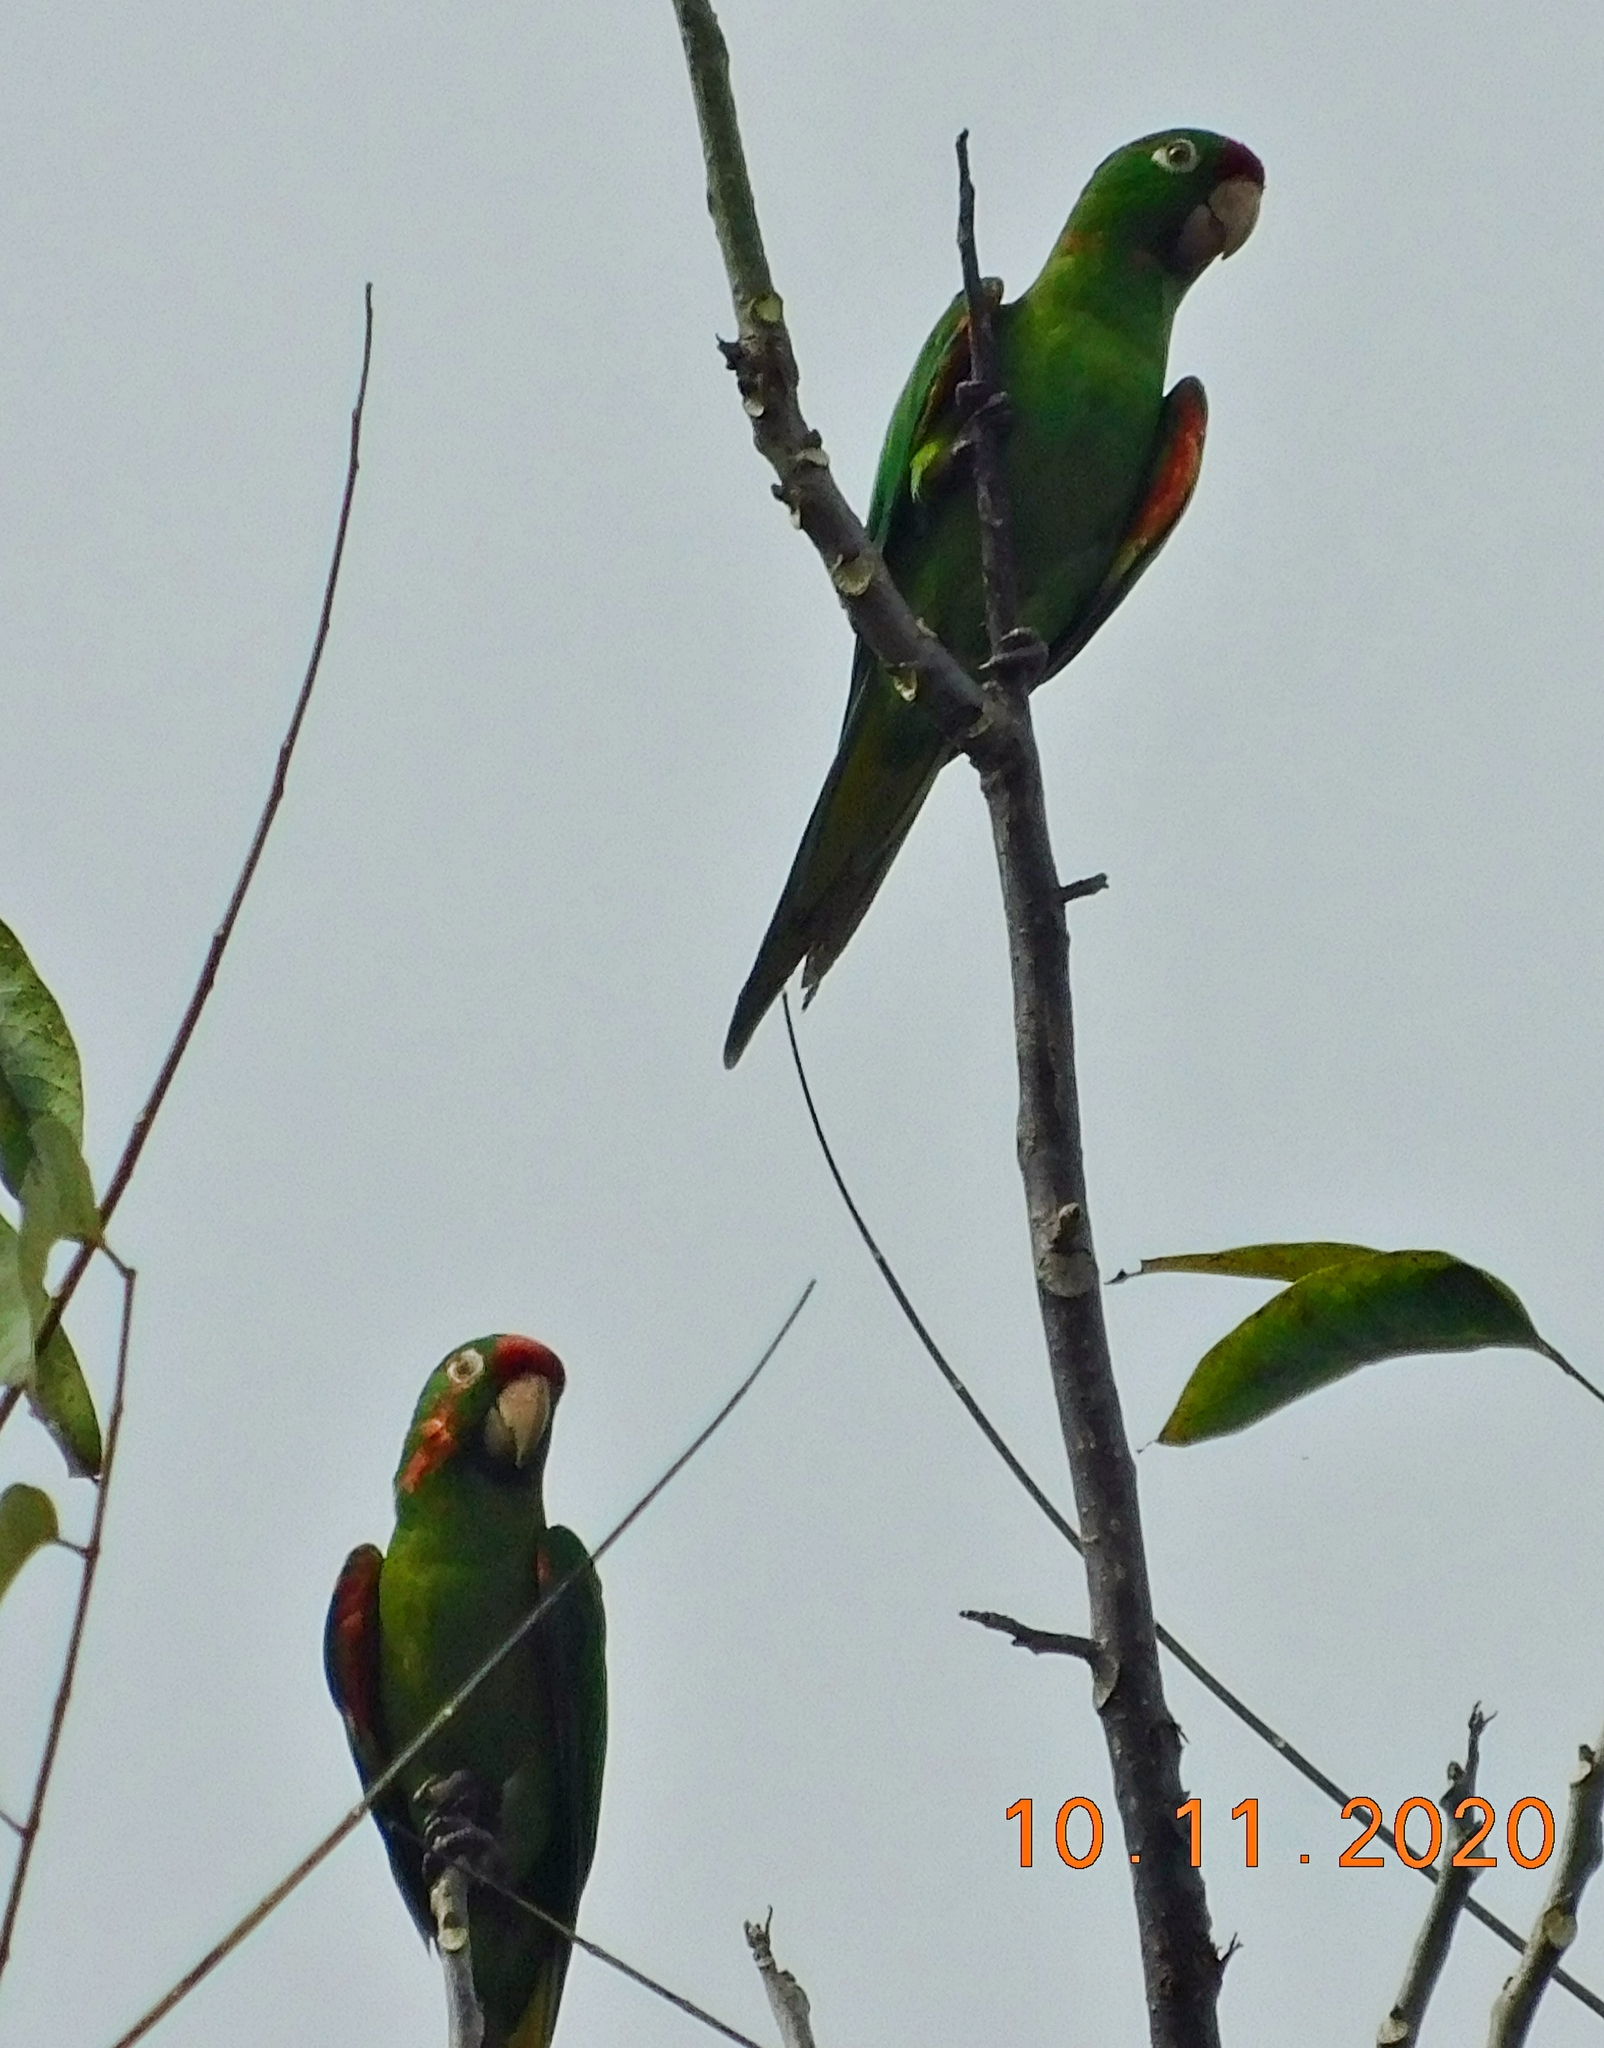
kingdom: Animalia
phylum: Chordata
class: Aves
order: Psittaciformes
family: Psittacidae
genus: Aratinga
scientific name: Aratinga finschi
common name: Crimson-fronted parakeet
